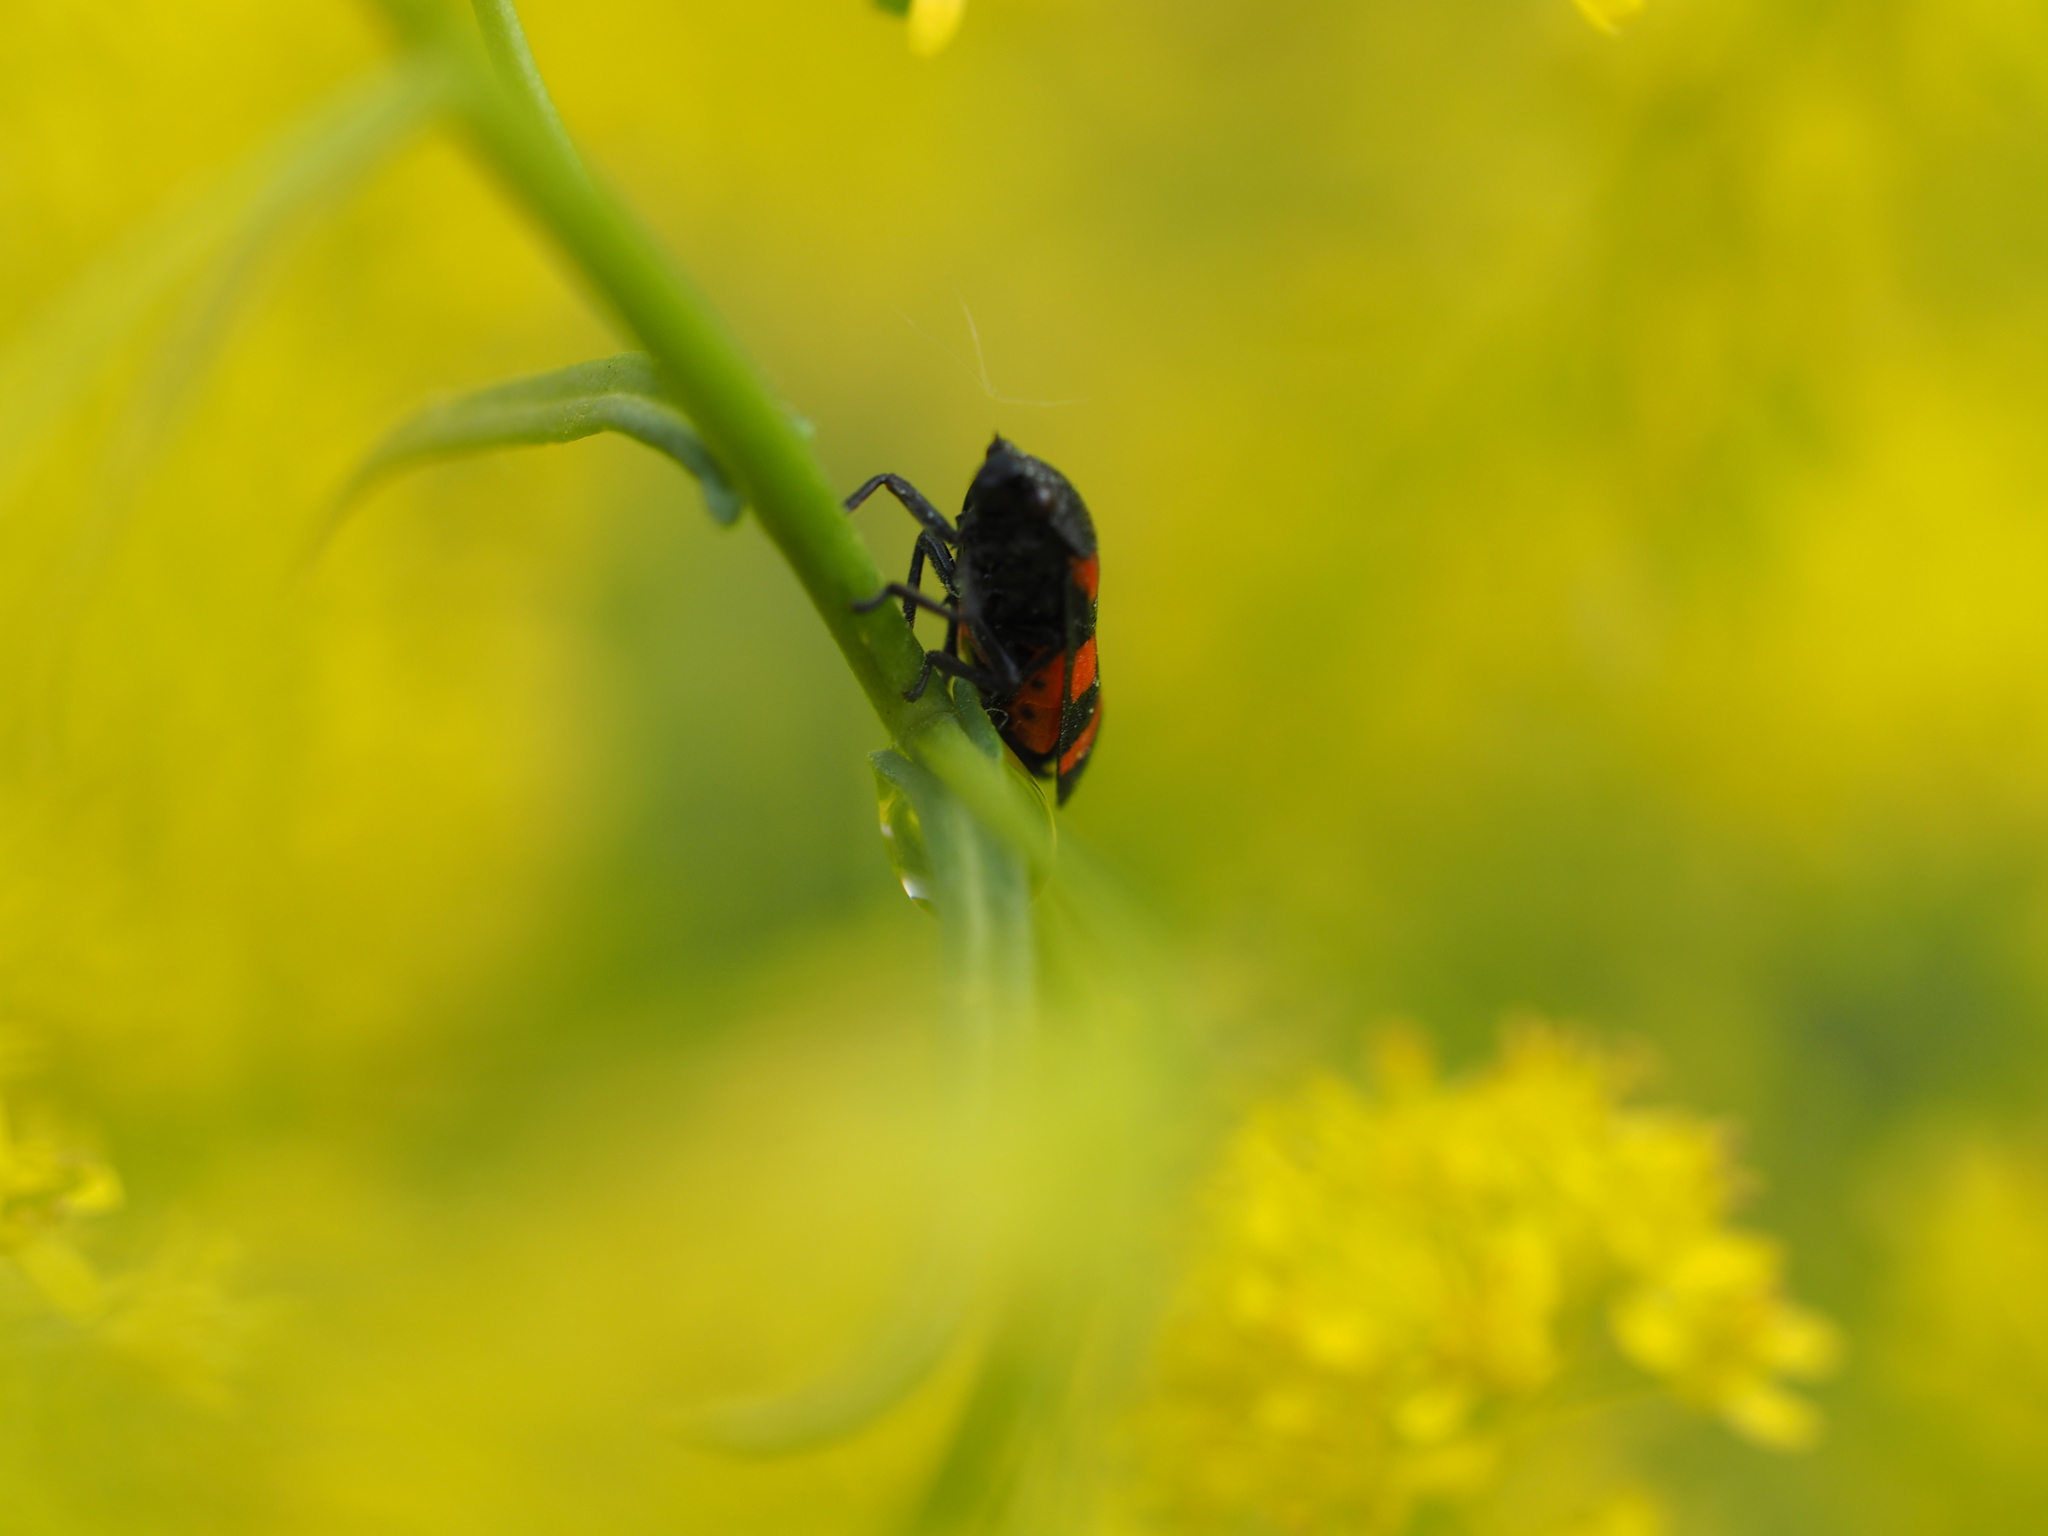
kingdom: Animalia
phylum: Arthropoda
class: Insecta
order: Hemiptera
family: Cercopidae
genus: Cercopis
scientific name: Cercopis sanguinolenta
